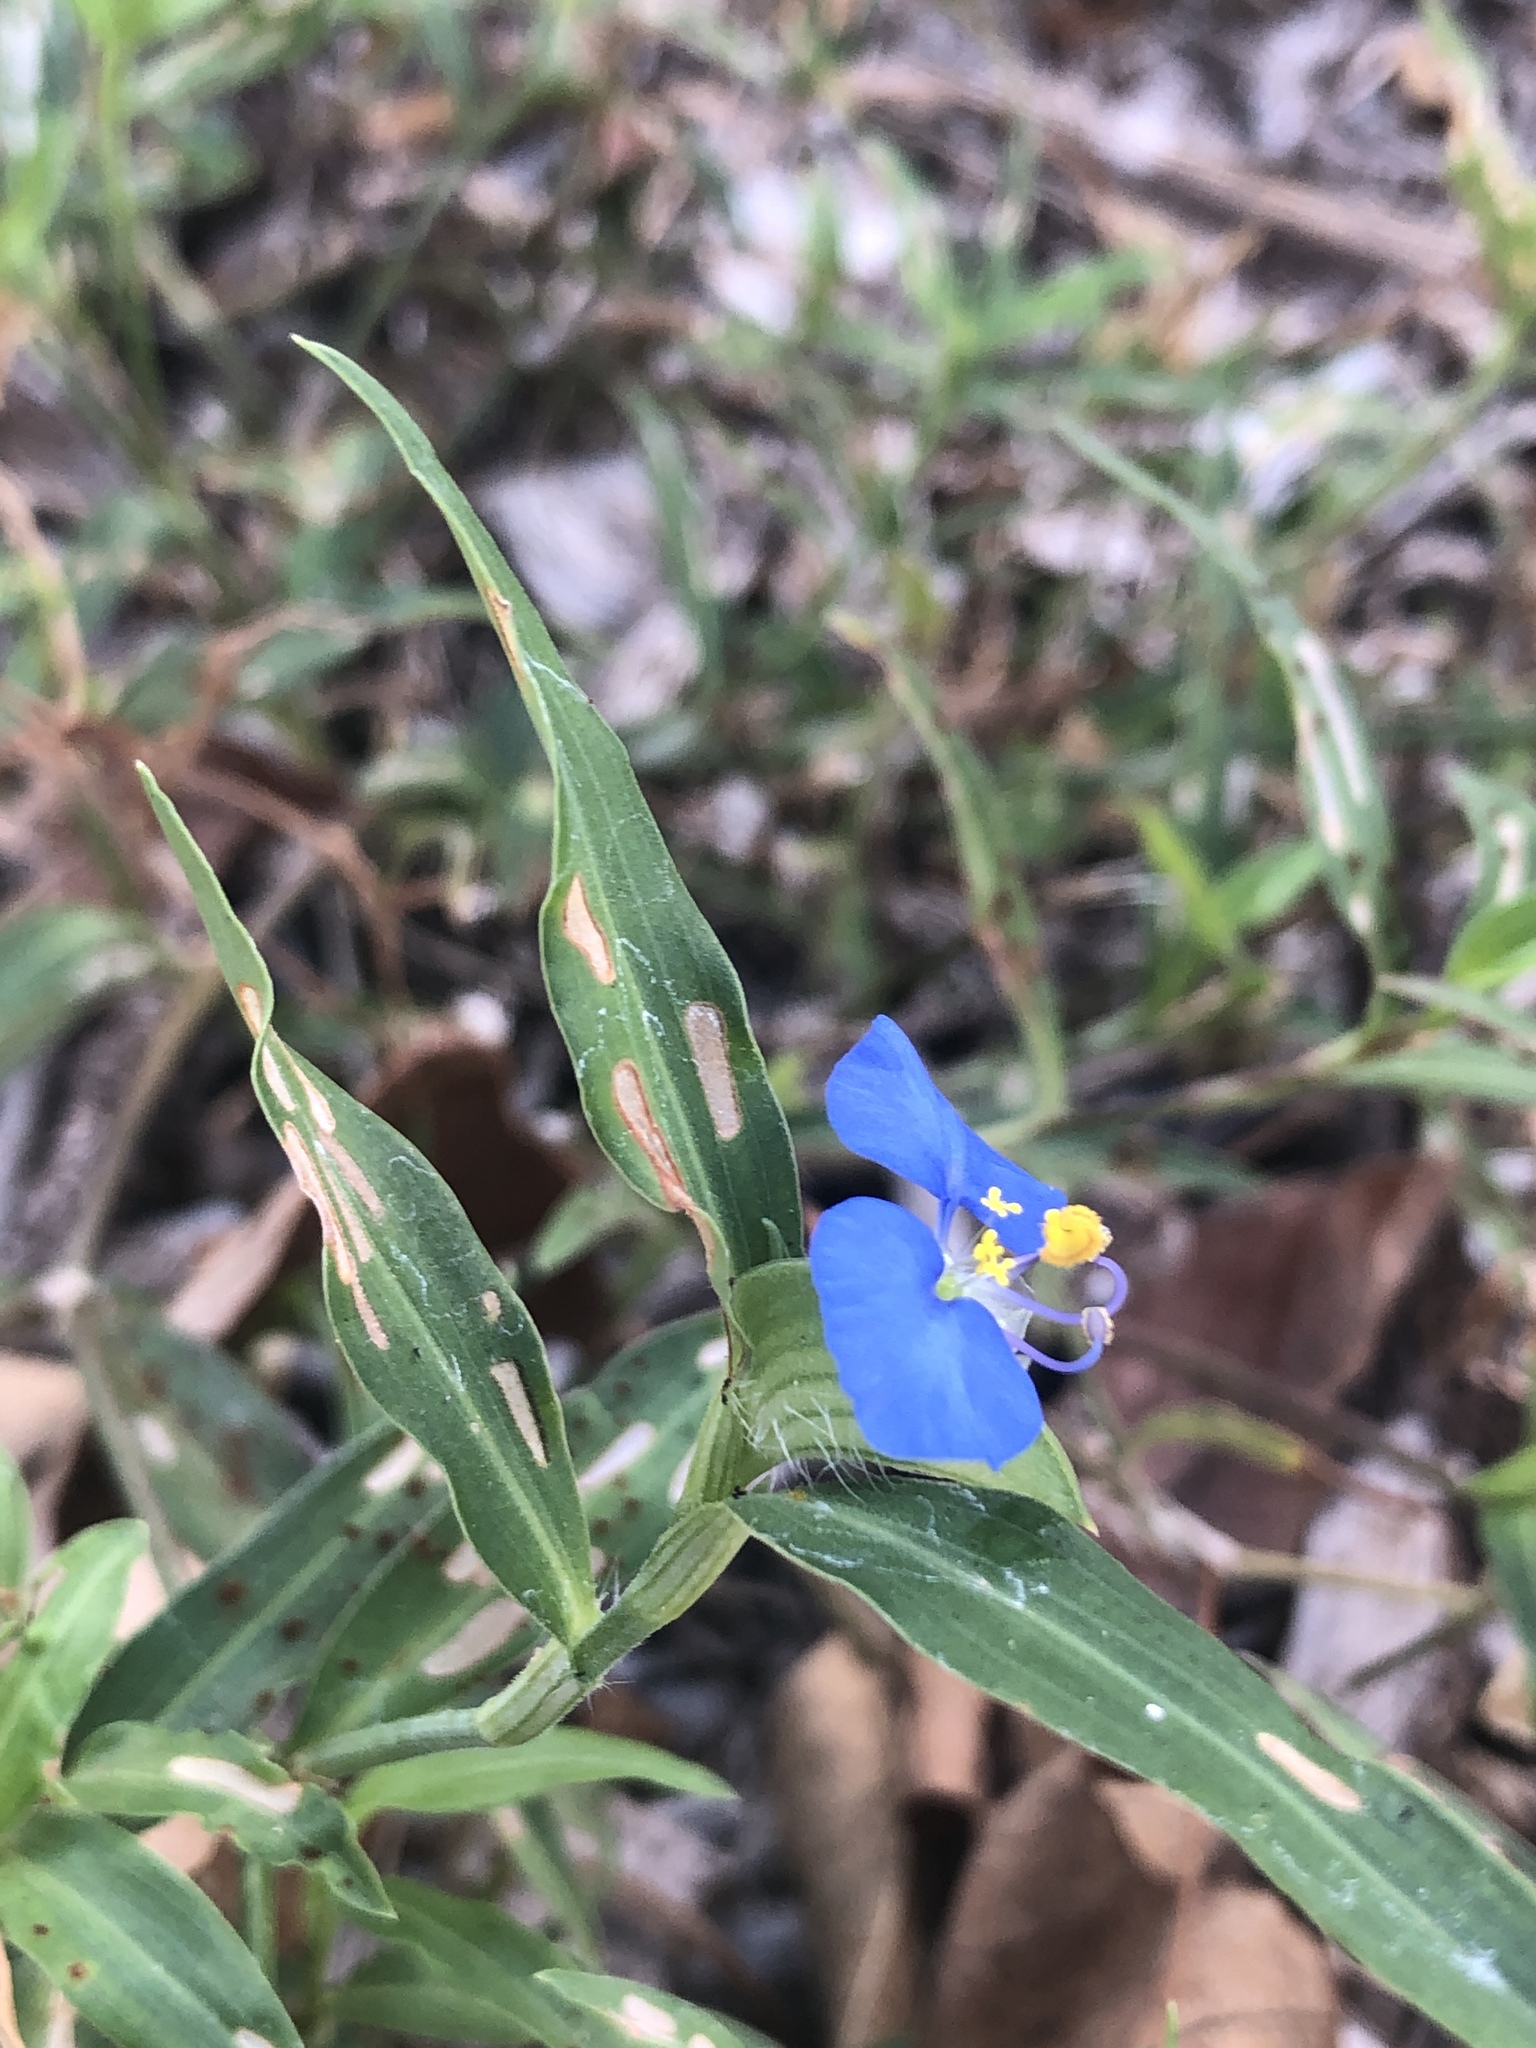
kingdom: Plantae
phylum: Tracheophyta
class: Liliopsida
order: Commelinales
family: Commelinaceae
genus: Commelina
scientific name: Commelina erecta
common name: Blousel blommetjie
